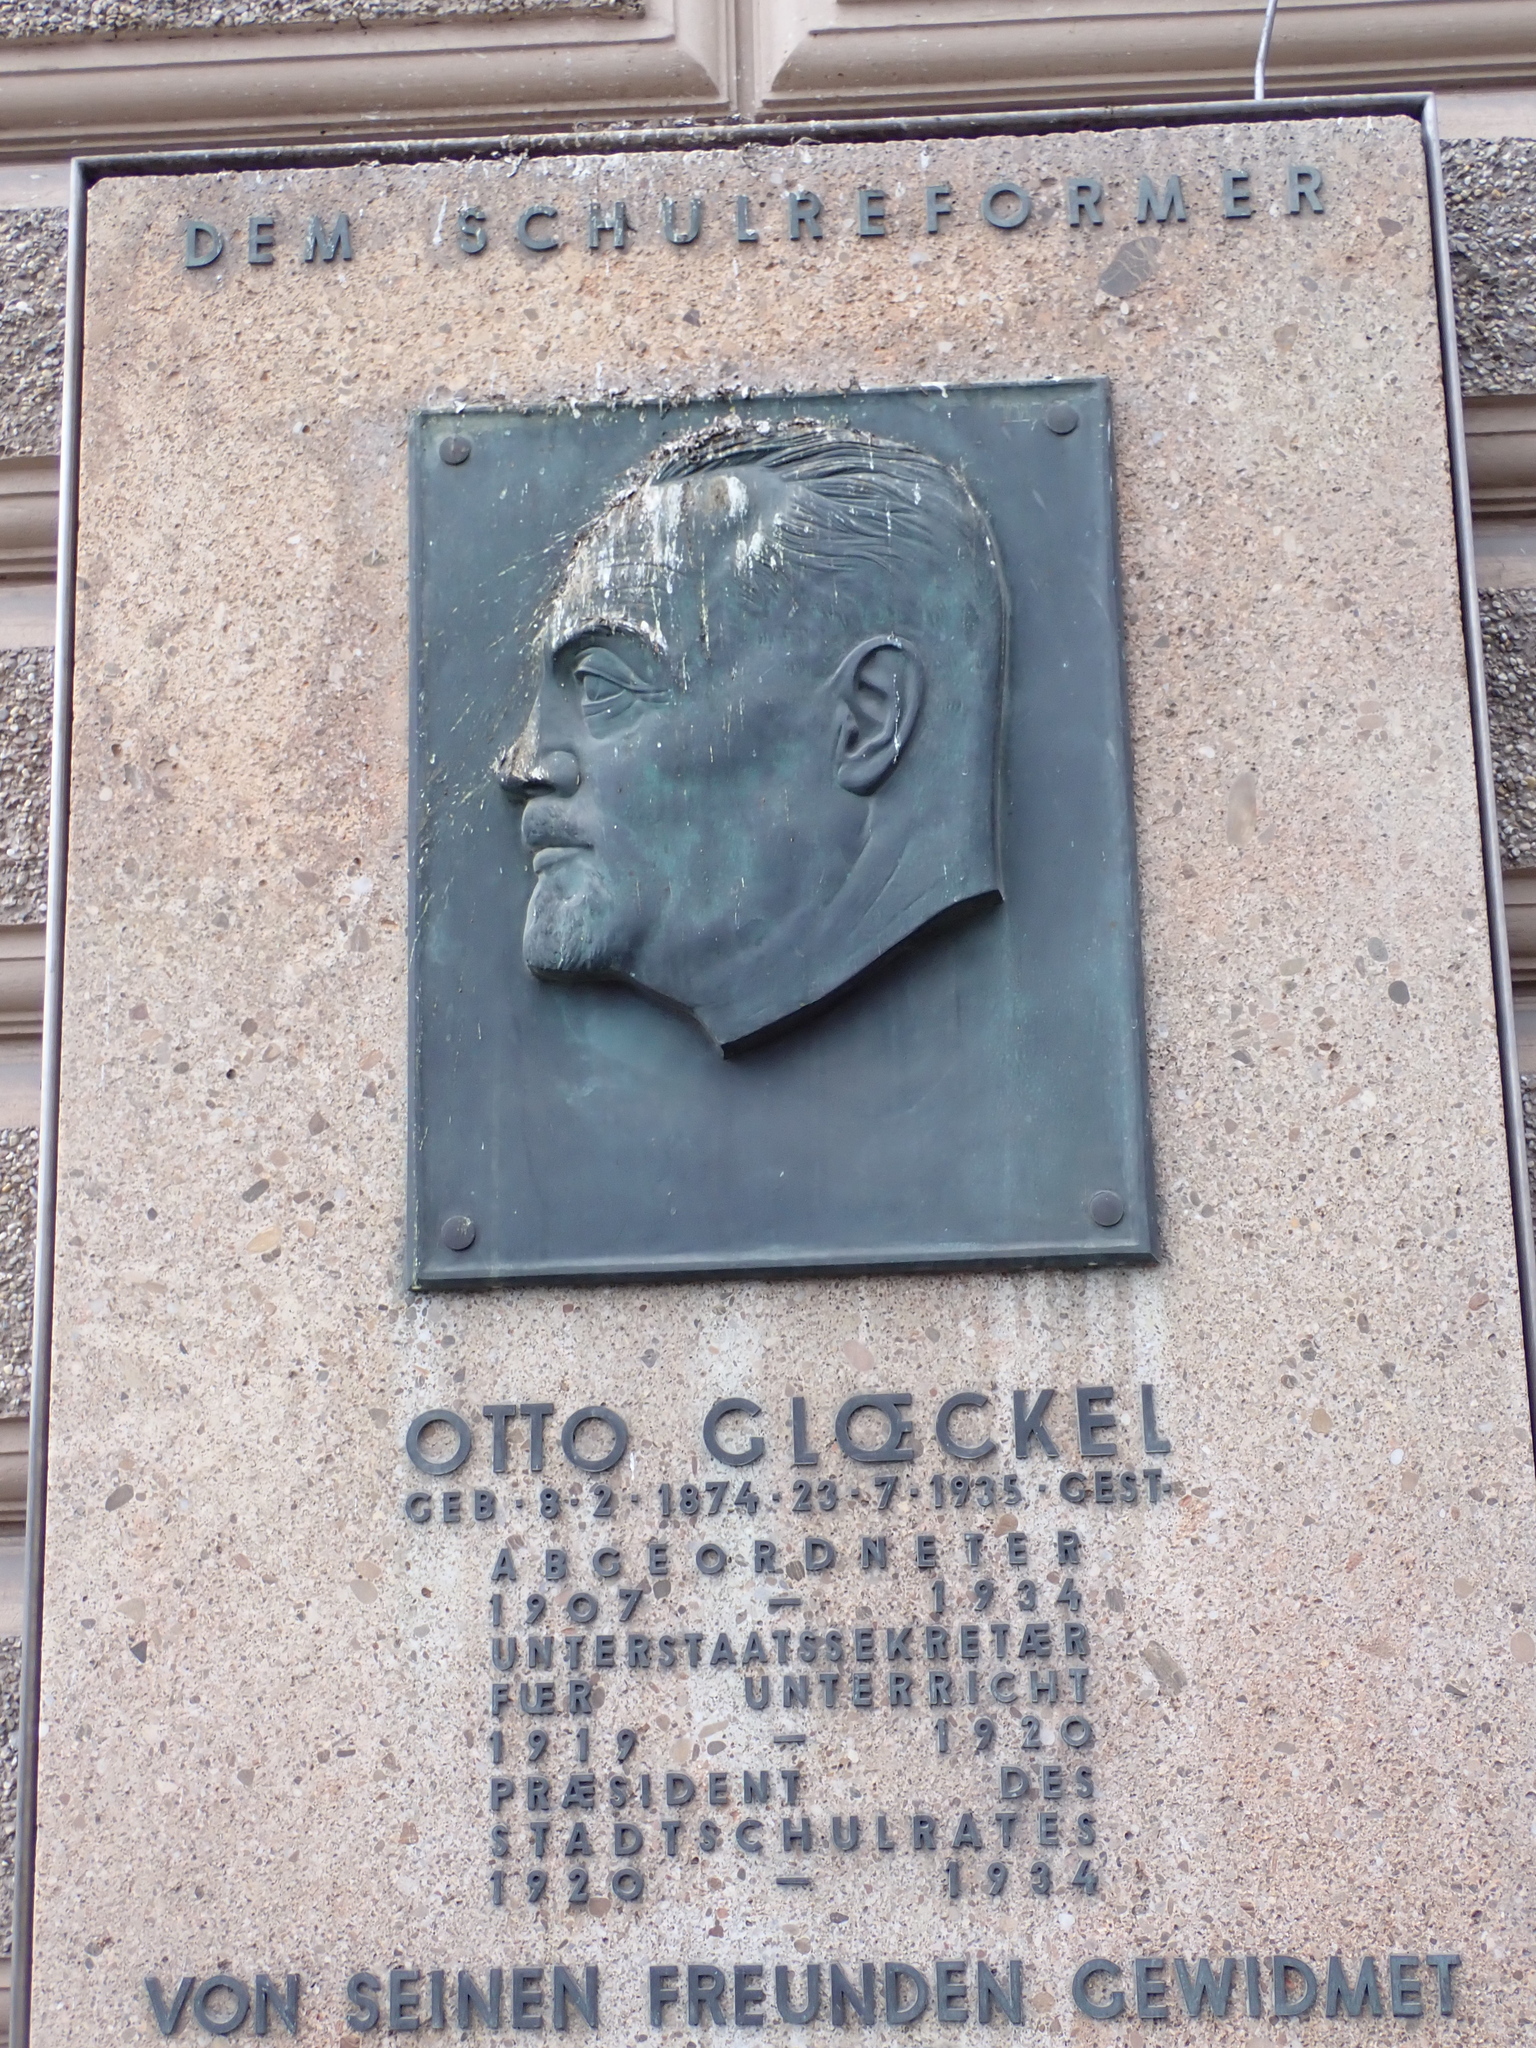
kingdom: Animalia
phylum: Chordata
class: Aves
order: Columbiformes
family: Columbidae
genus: Columba
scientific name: Columba livia
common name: Rock pigeon
